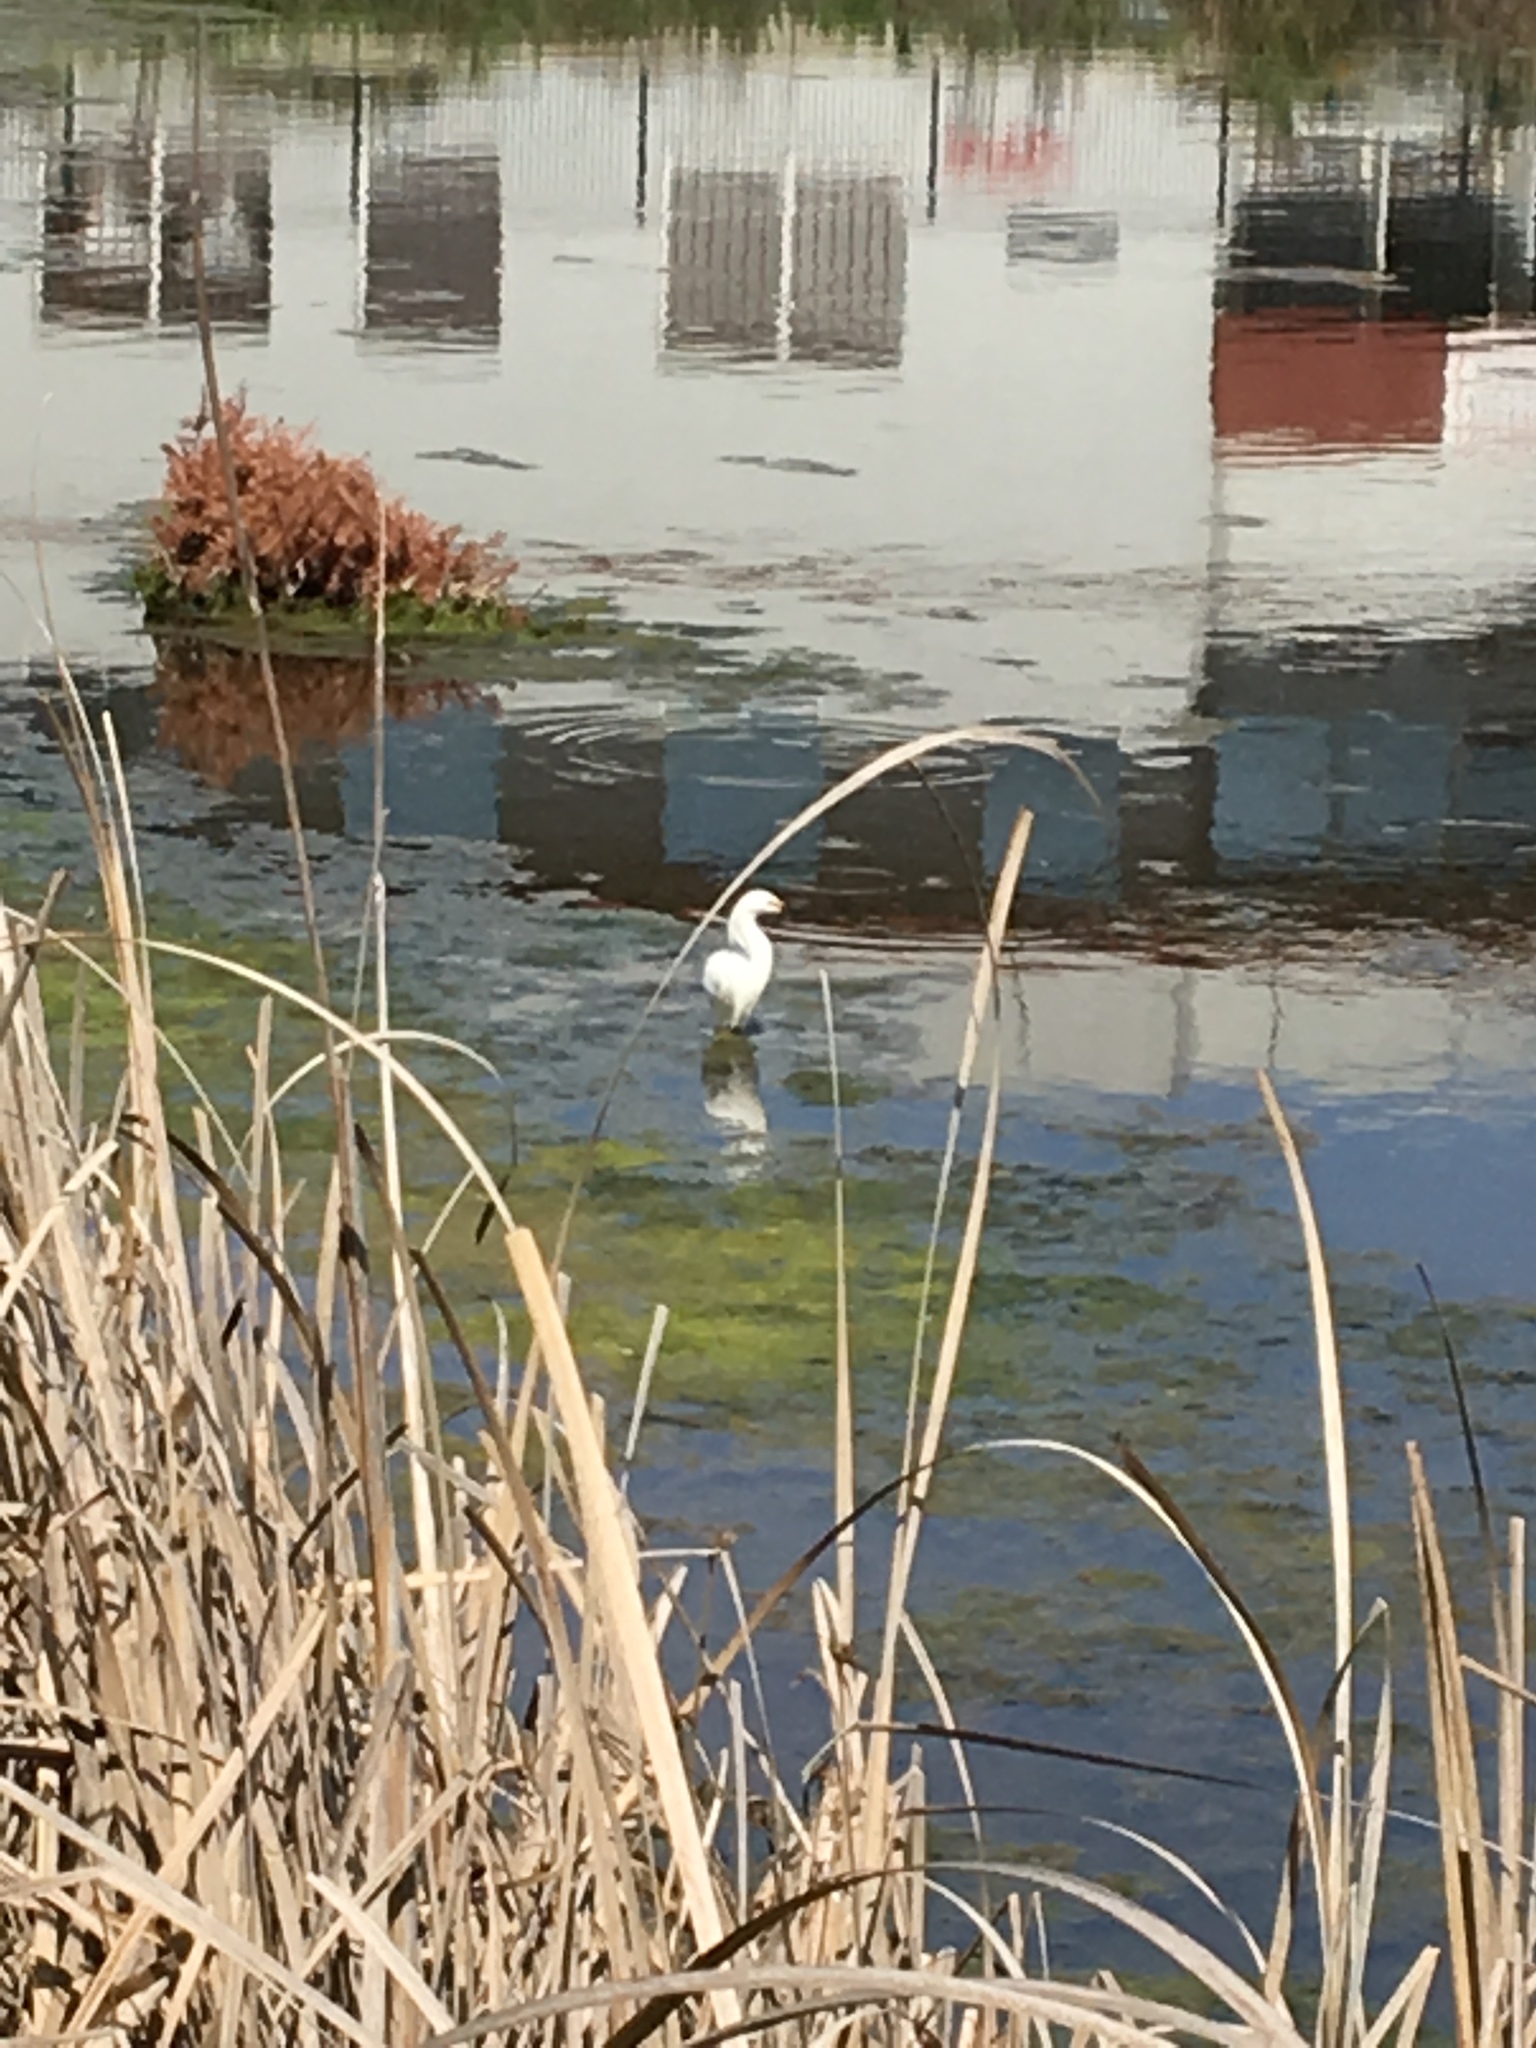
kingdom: Animalia
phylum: Chordata
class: Aves
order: Pelecaniformes
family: Ardeidae
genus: Egretta
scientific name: Egretta thula
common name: Snowy egret
